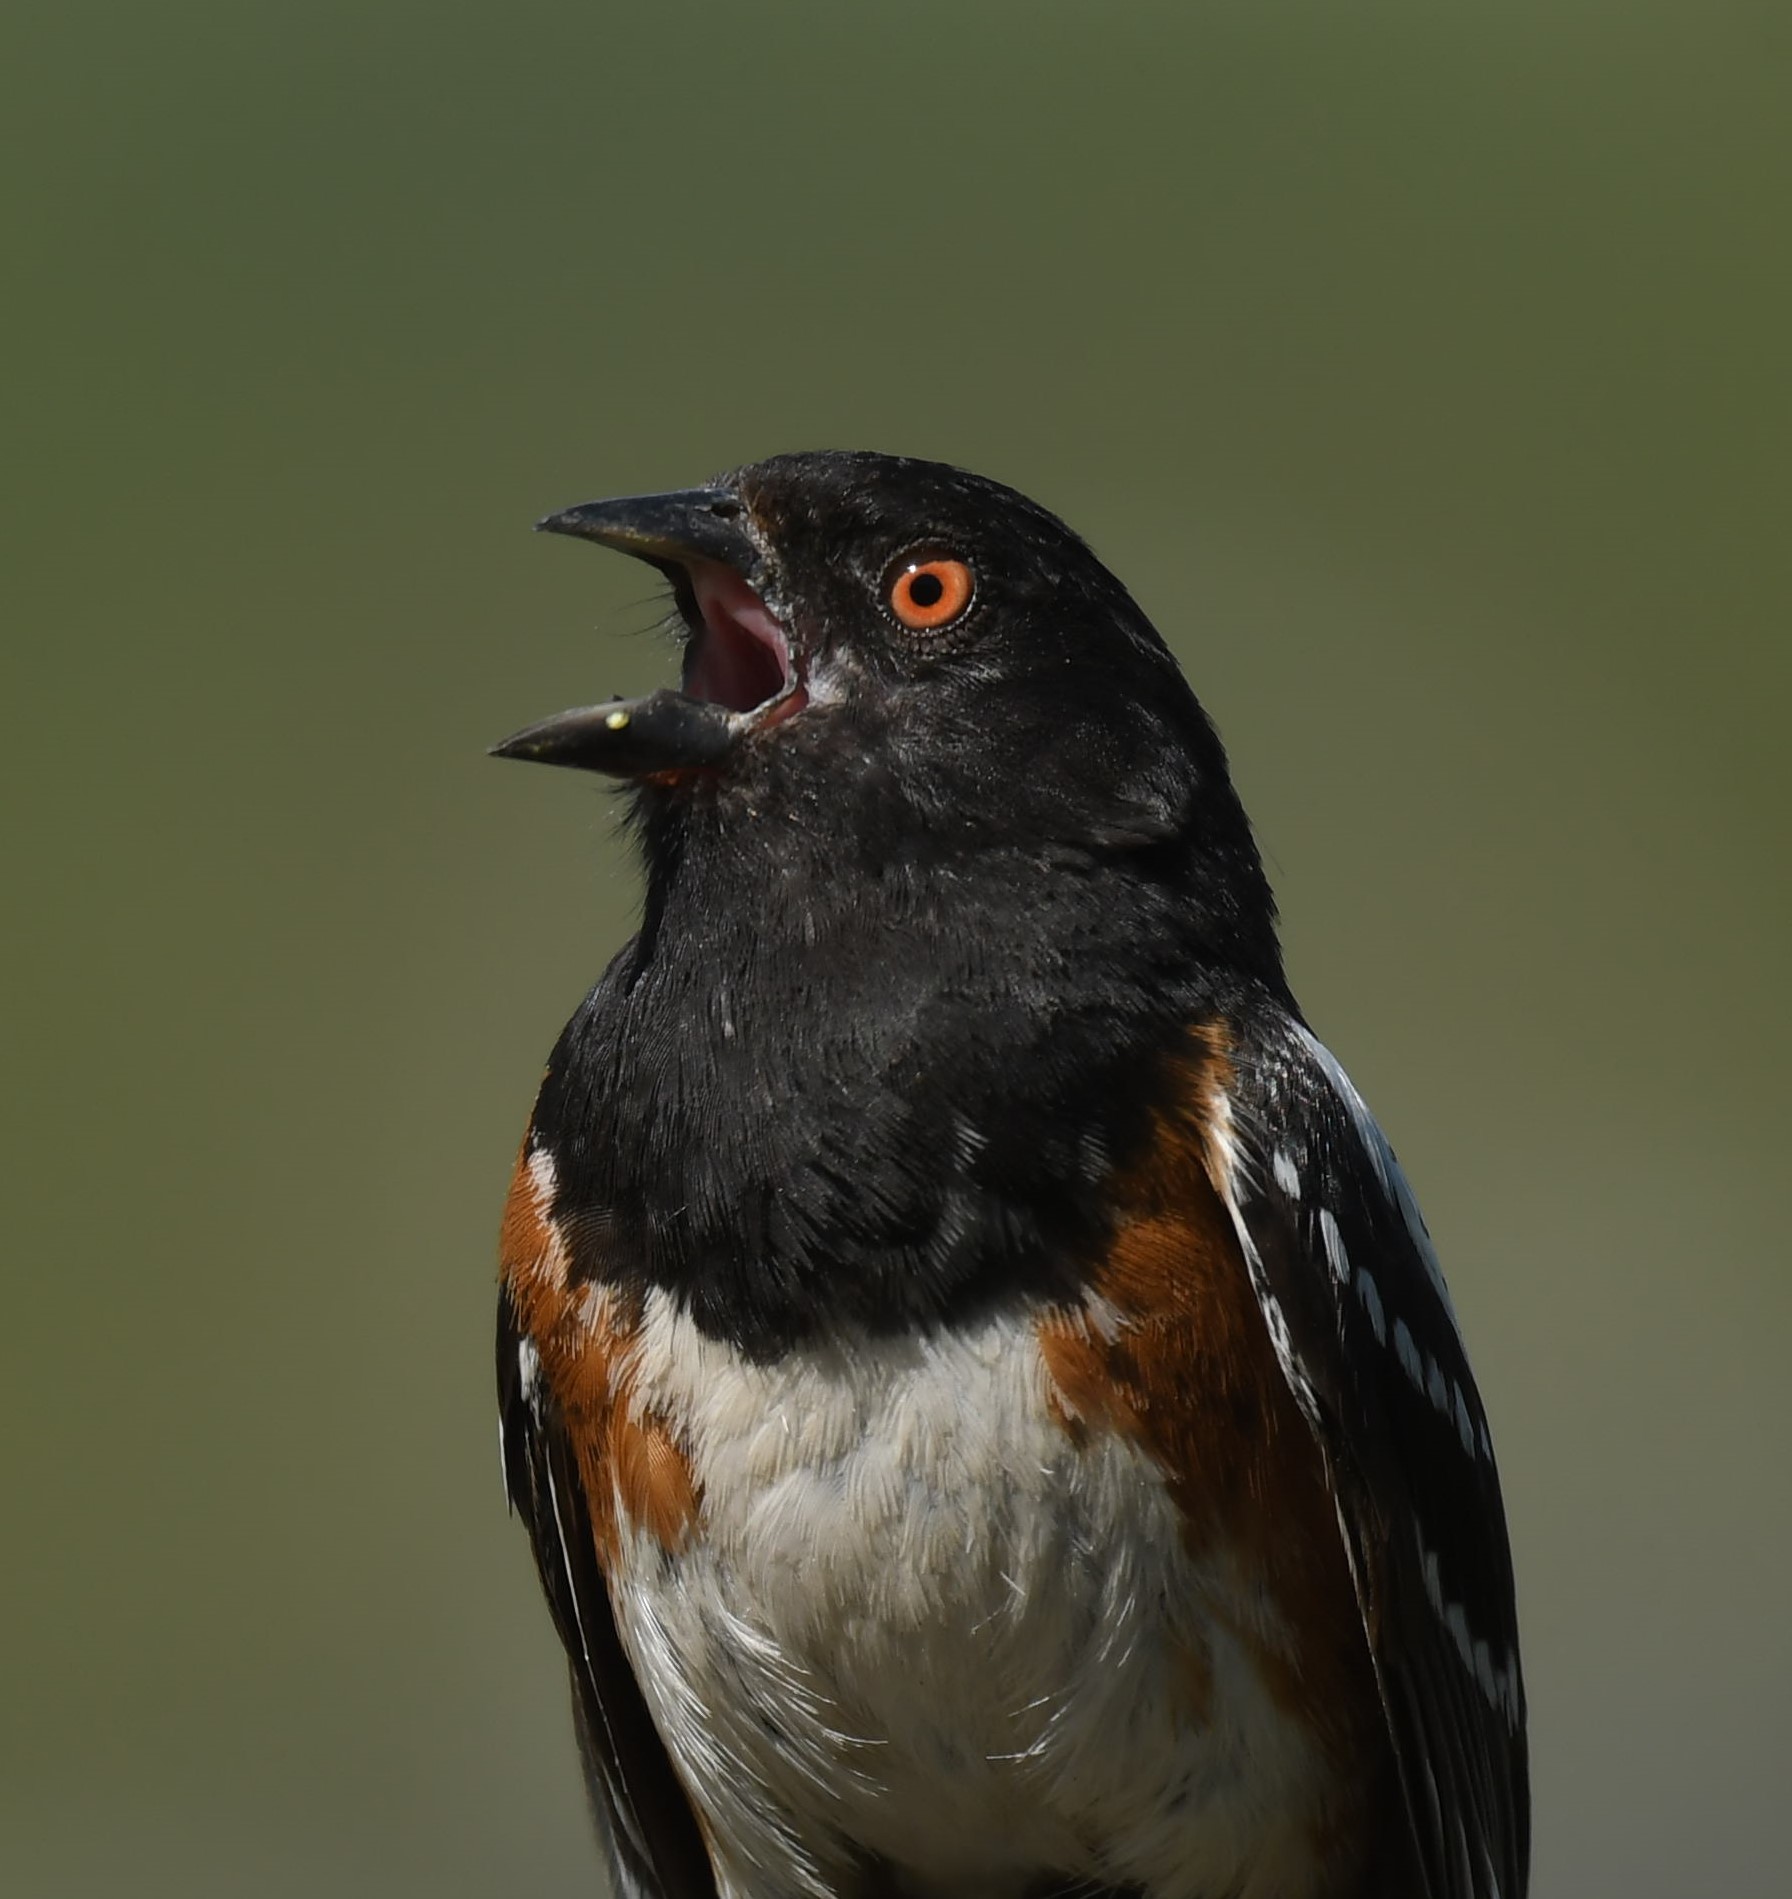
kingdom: Animalia
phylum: Chordata
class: Aves
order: Passeriformes
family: Passerellidae
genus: Pipilo
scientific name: Pipilo maculatus
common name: Spotted towhee
